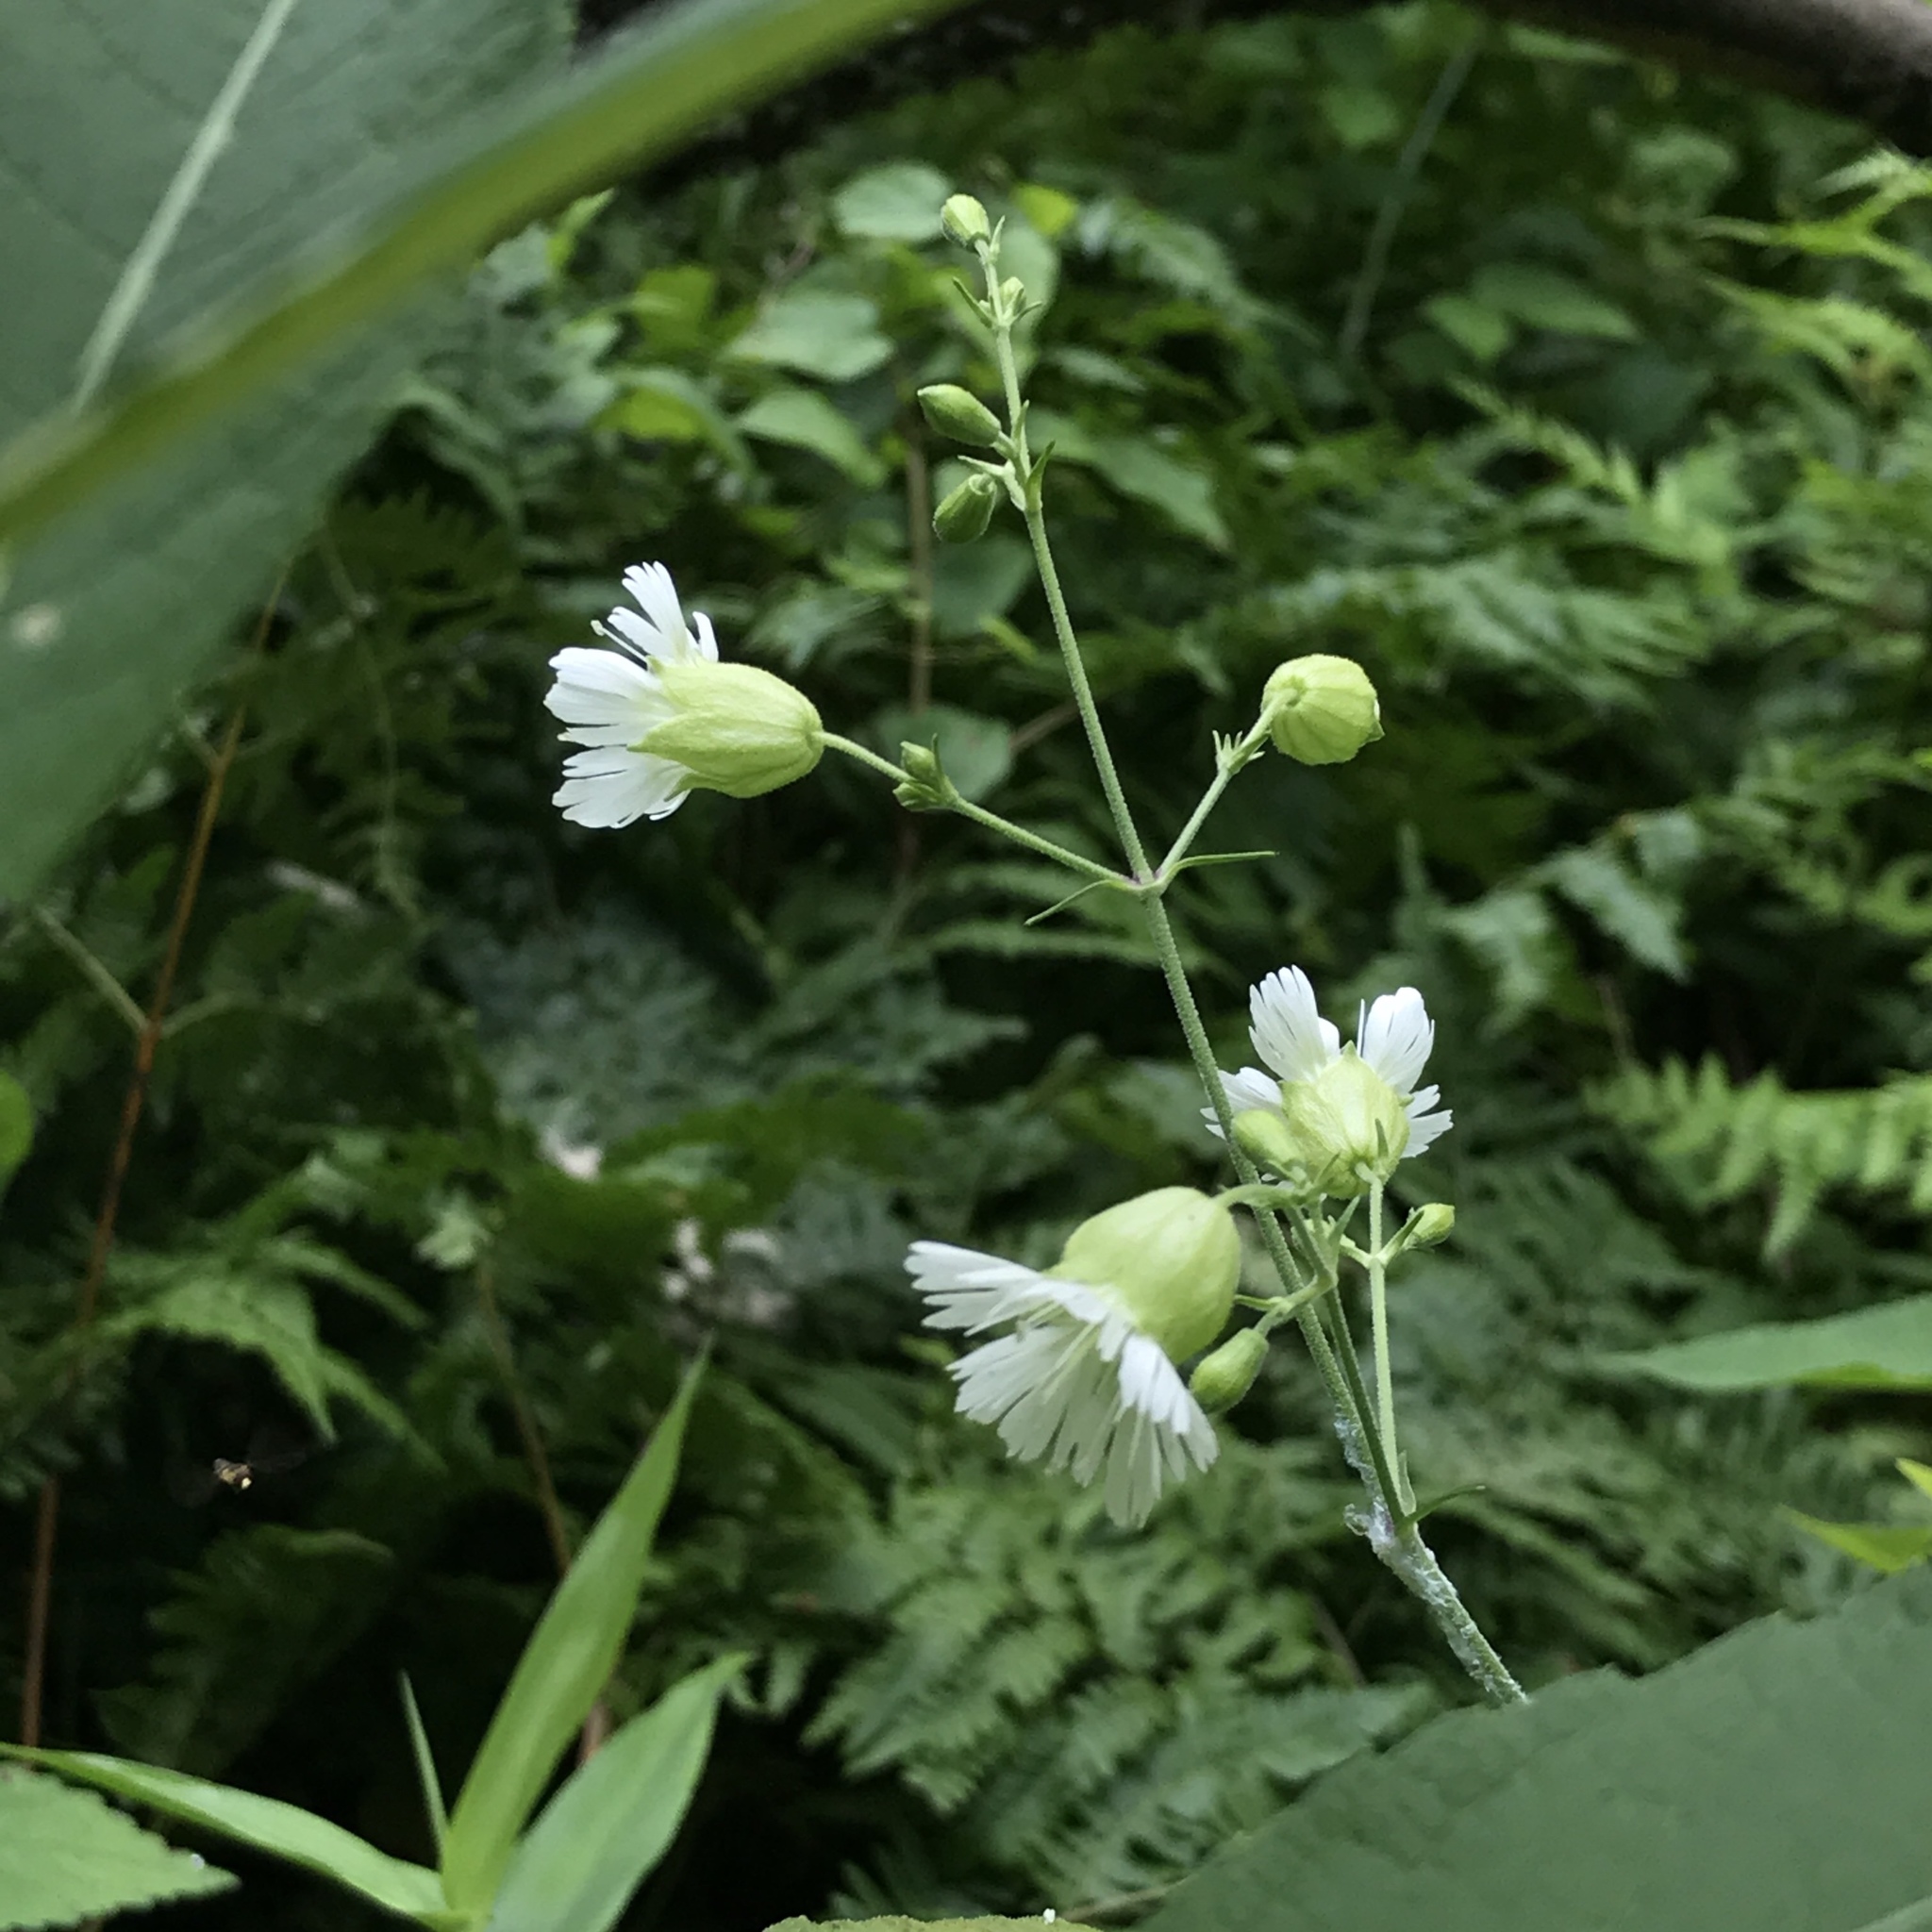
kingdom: Plantae
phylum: Tracheophyta
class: Magnoliopsida
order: Caryophyllales
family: Caryophyllaceae
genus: Silene
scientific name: Silene stellata
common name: Starry campion
